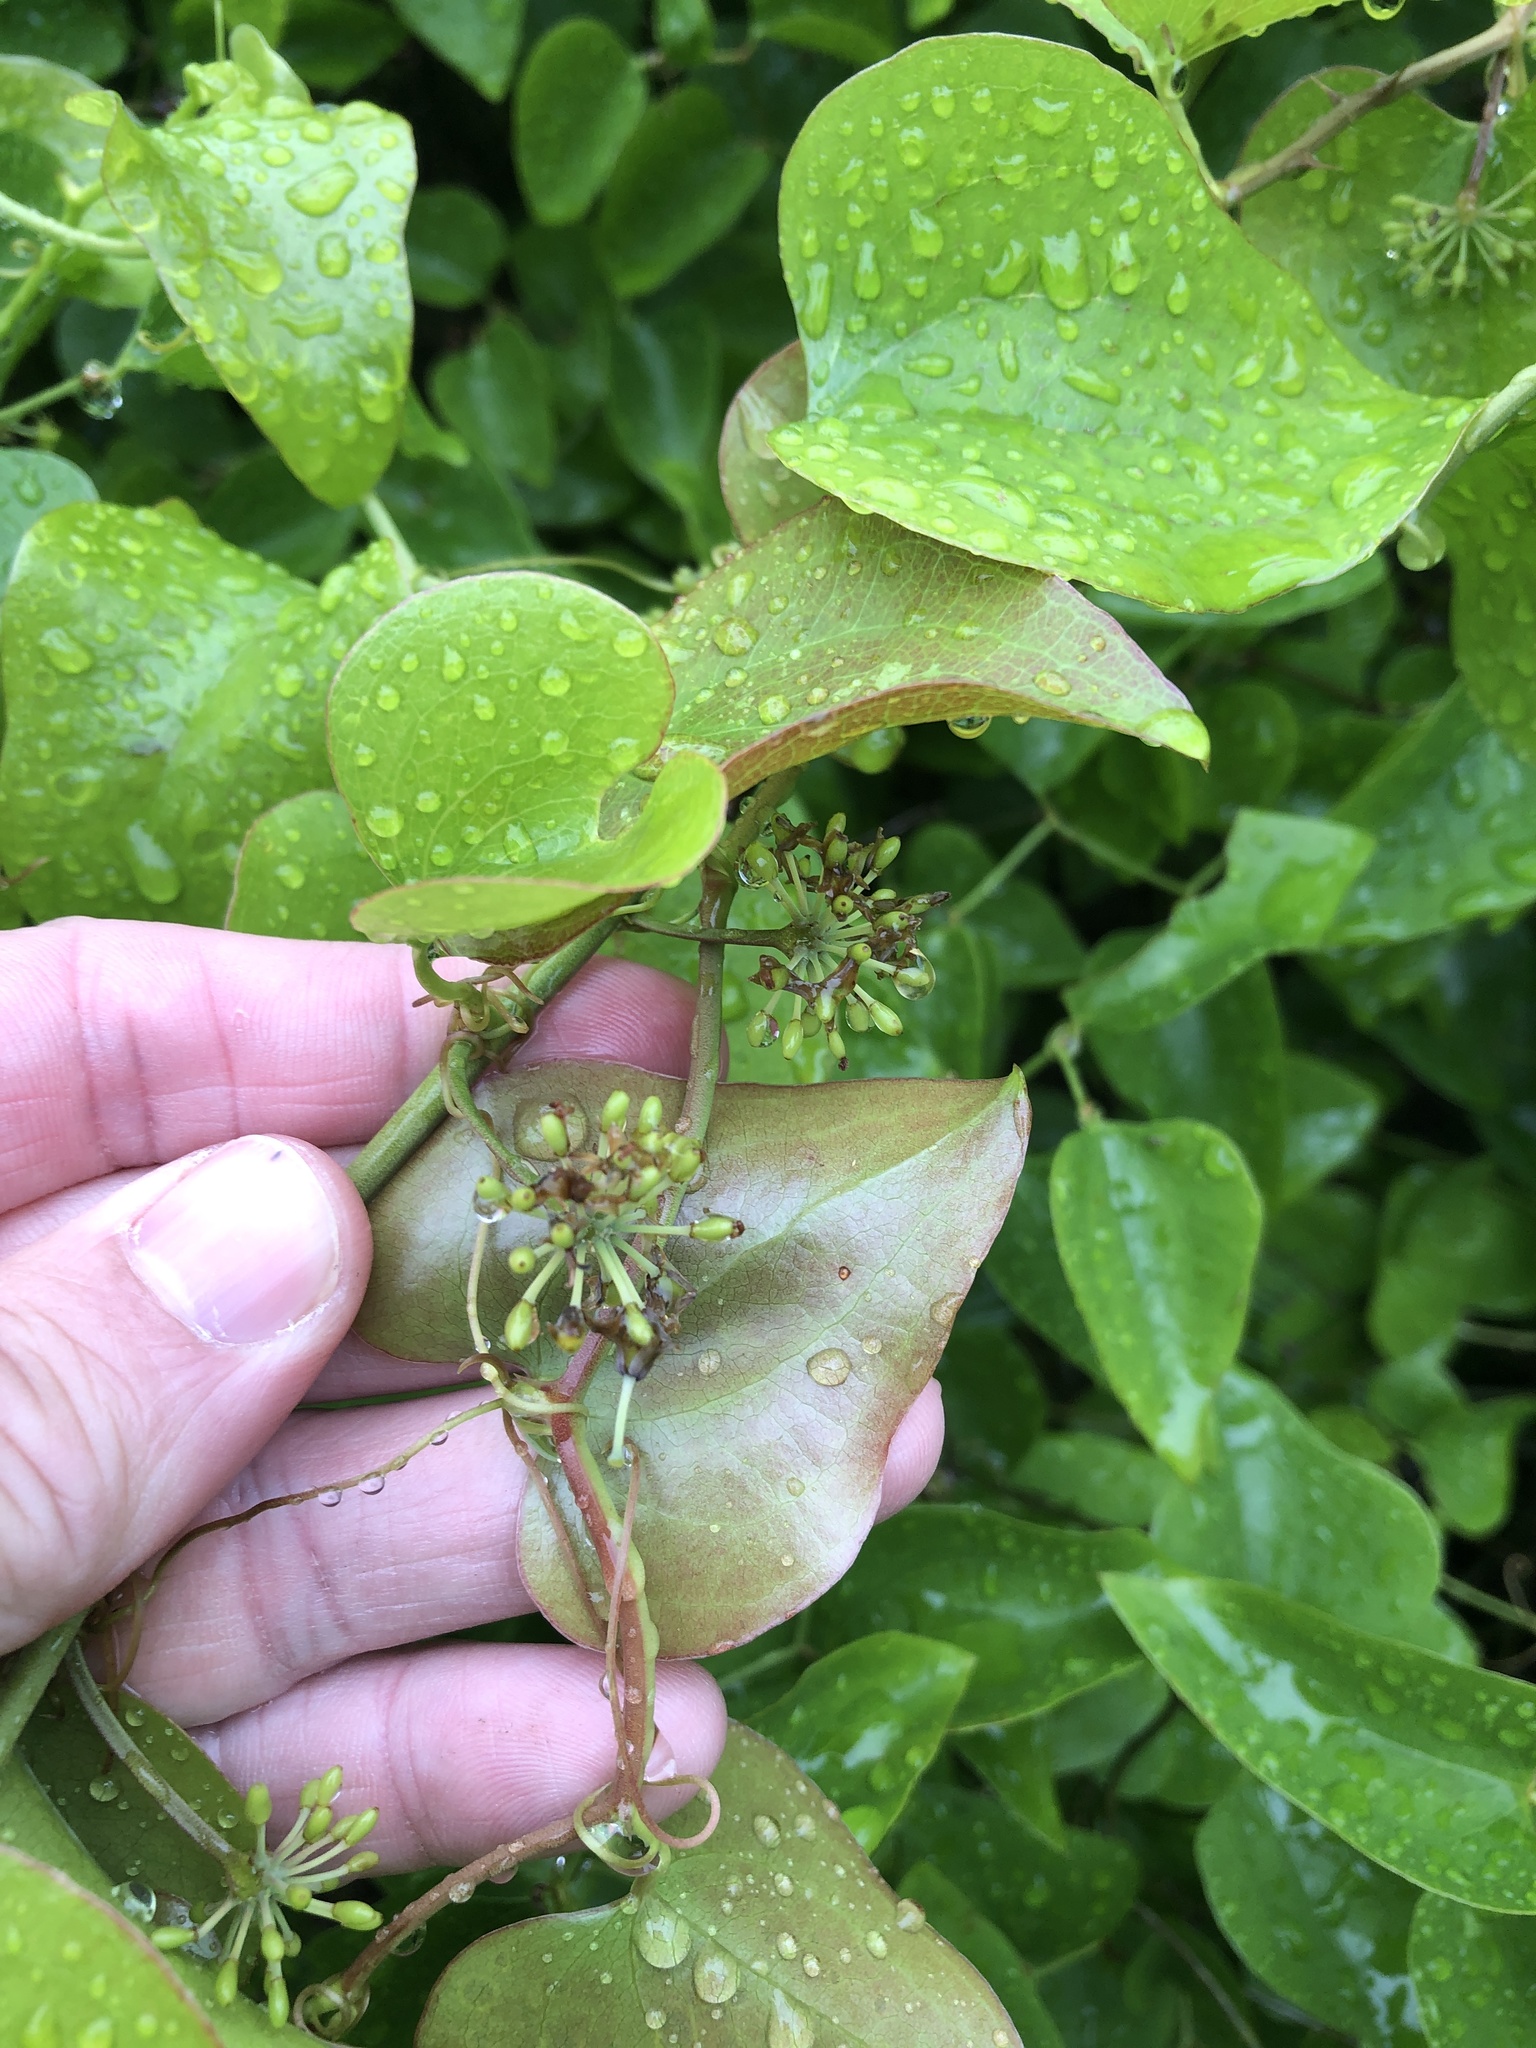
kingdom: Plantae
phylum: Tracheophyta
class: Liliopsida
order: Liliales
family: Smilacaceae
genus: Smilax
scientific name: Smilax bona-nox
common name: Catbrier
